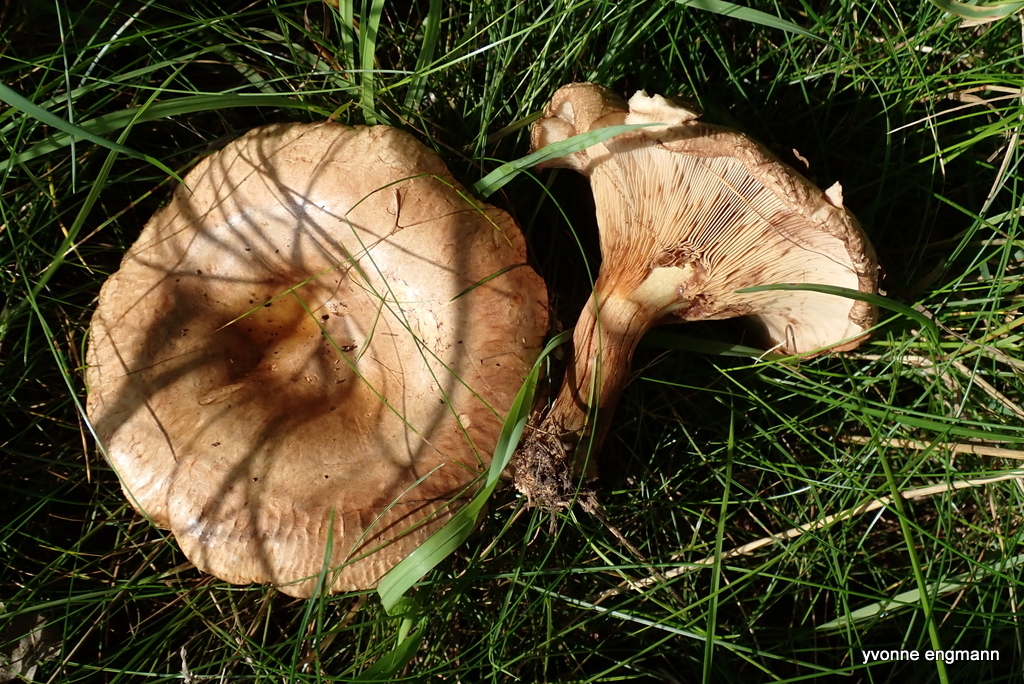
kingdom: Fungi
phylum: Basidiomycota
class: Agaricomycetes
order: Boletales
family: Paxillaceae
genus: Paxillus
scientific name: Paxillus involutus
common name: Brown roll rim
